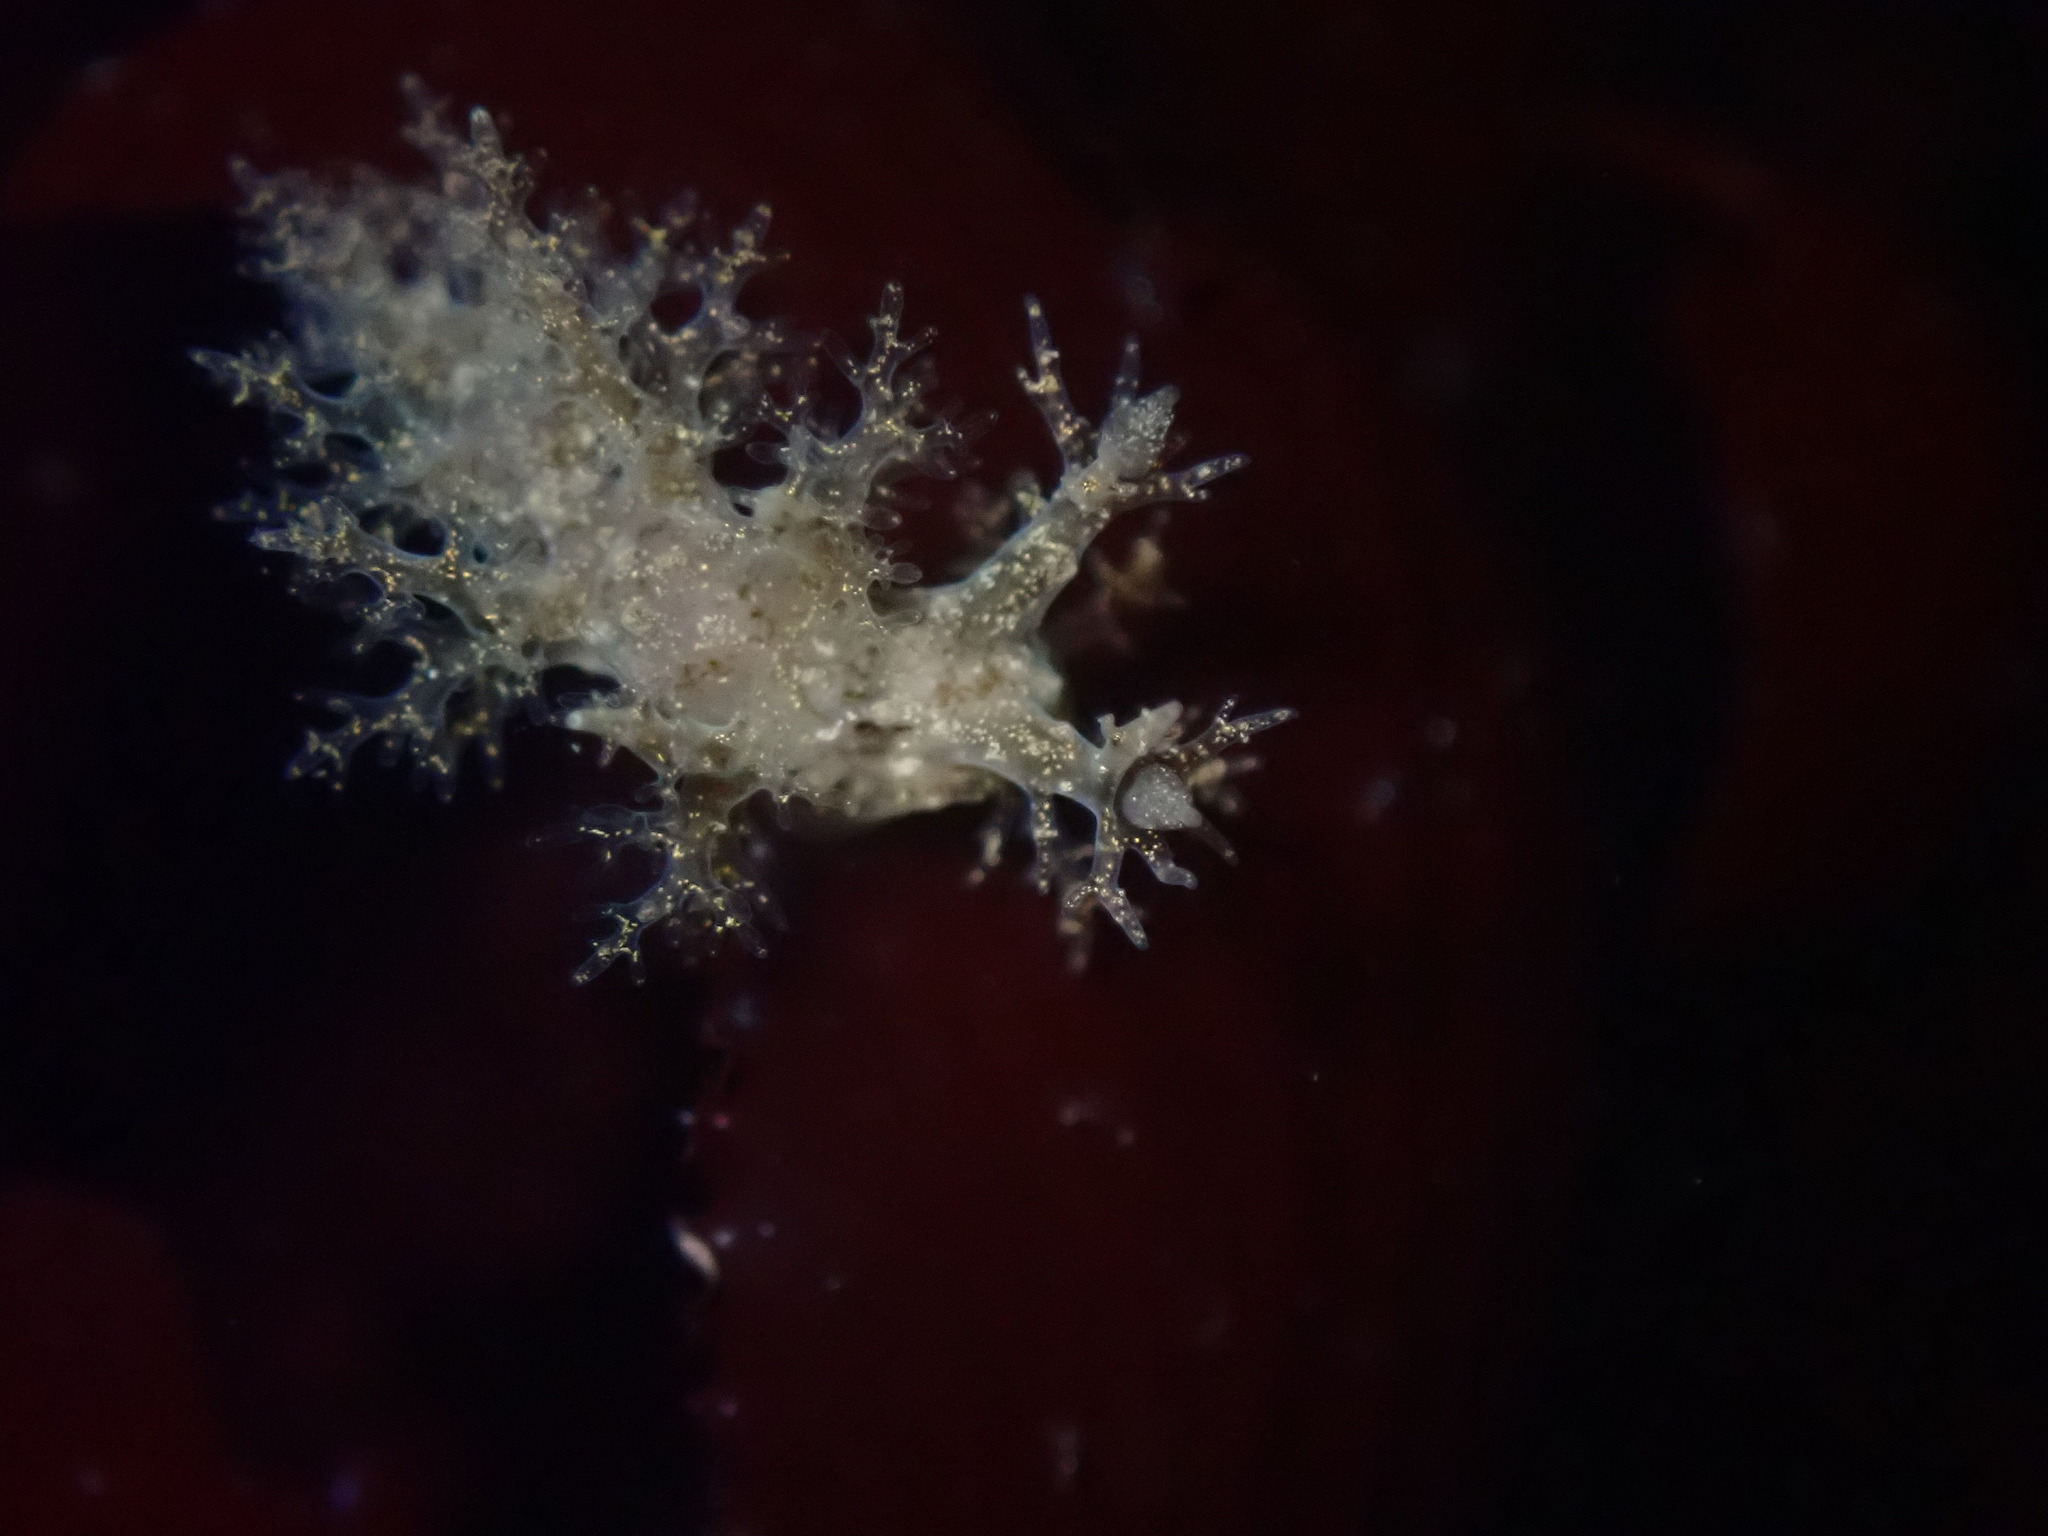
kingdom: Animalia
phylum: Mollusca
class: Gastropoda
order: Nudibranchia
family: Dendronotidae
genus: Dendronotus
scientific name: Dendronotus venustus
